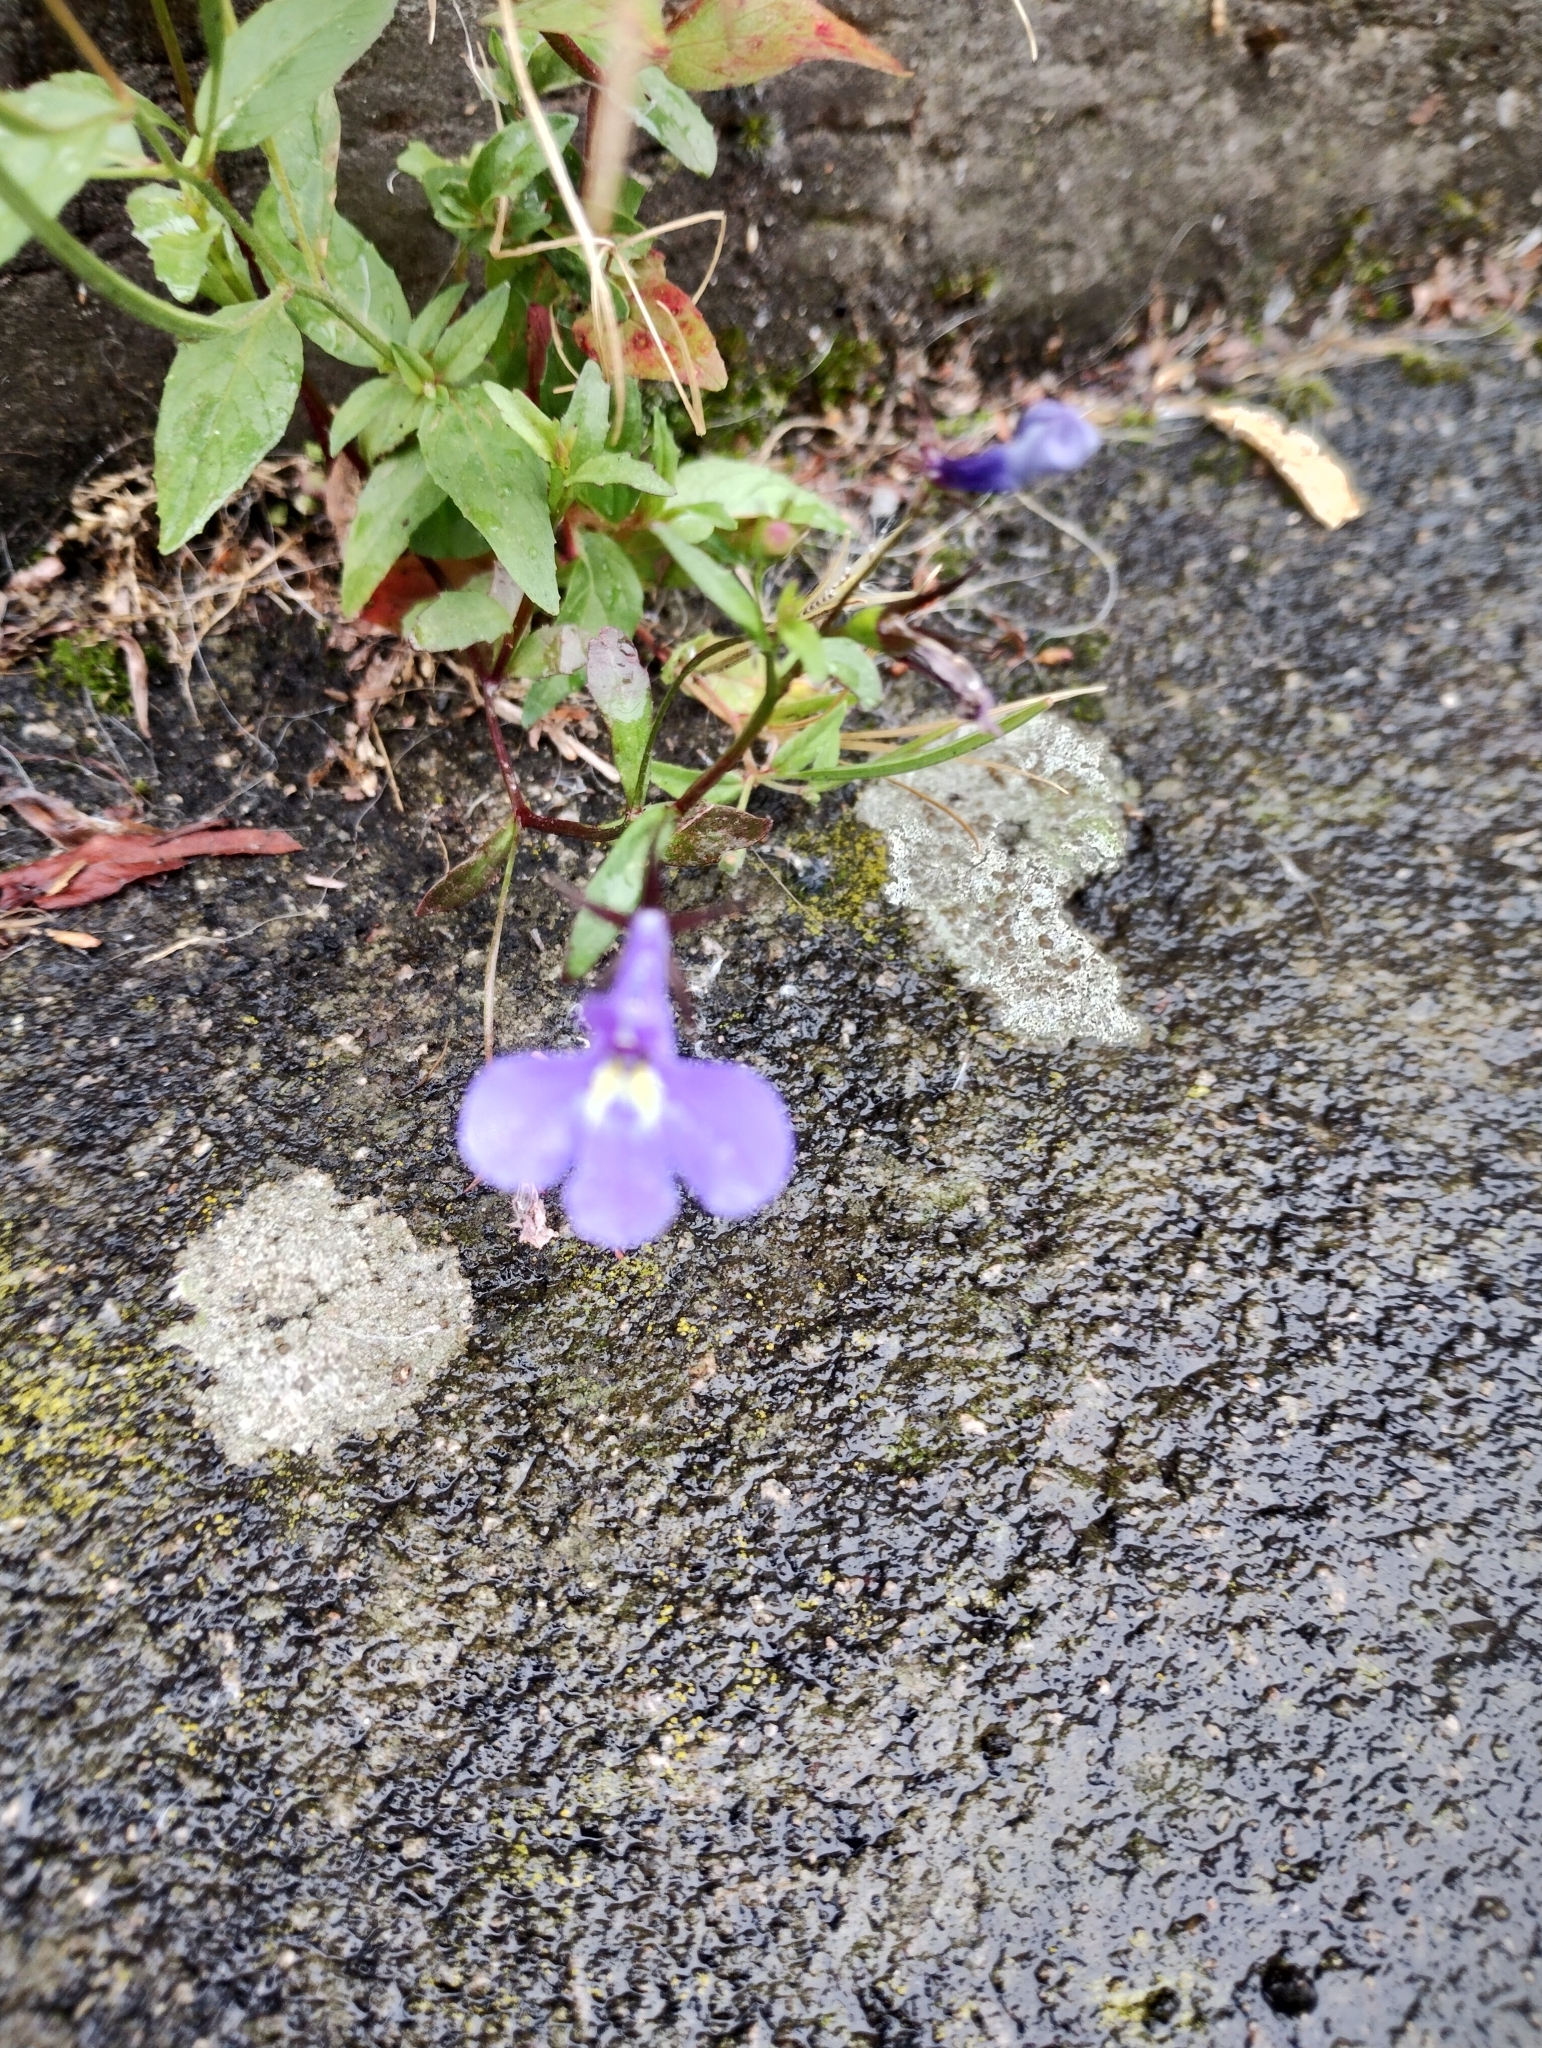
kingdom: Plantae
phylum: Tracheophyta
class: Magnoliopsida
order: Asterales
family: Campanulaceae
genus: Lobelia
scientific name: Lobelia erinus
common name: Edging lobelia
